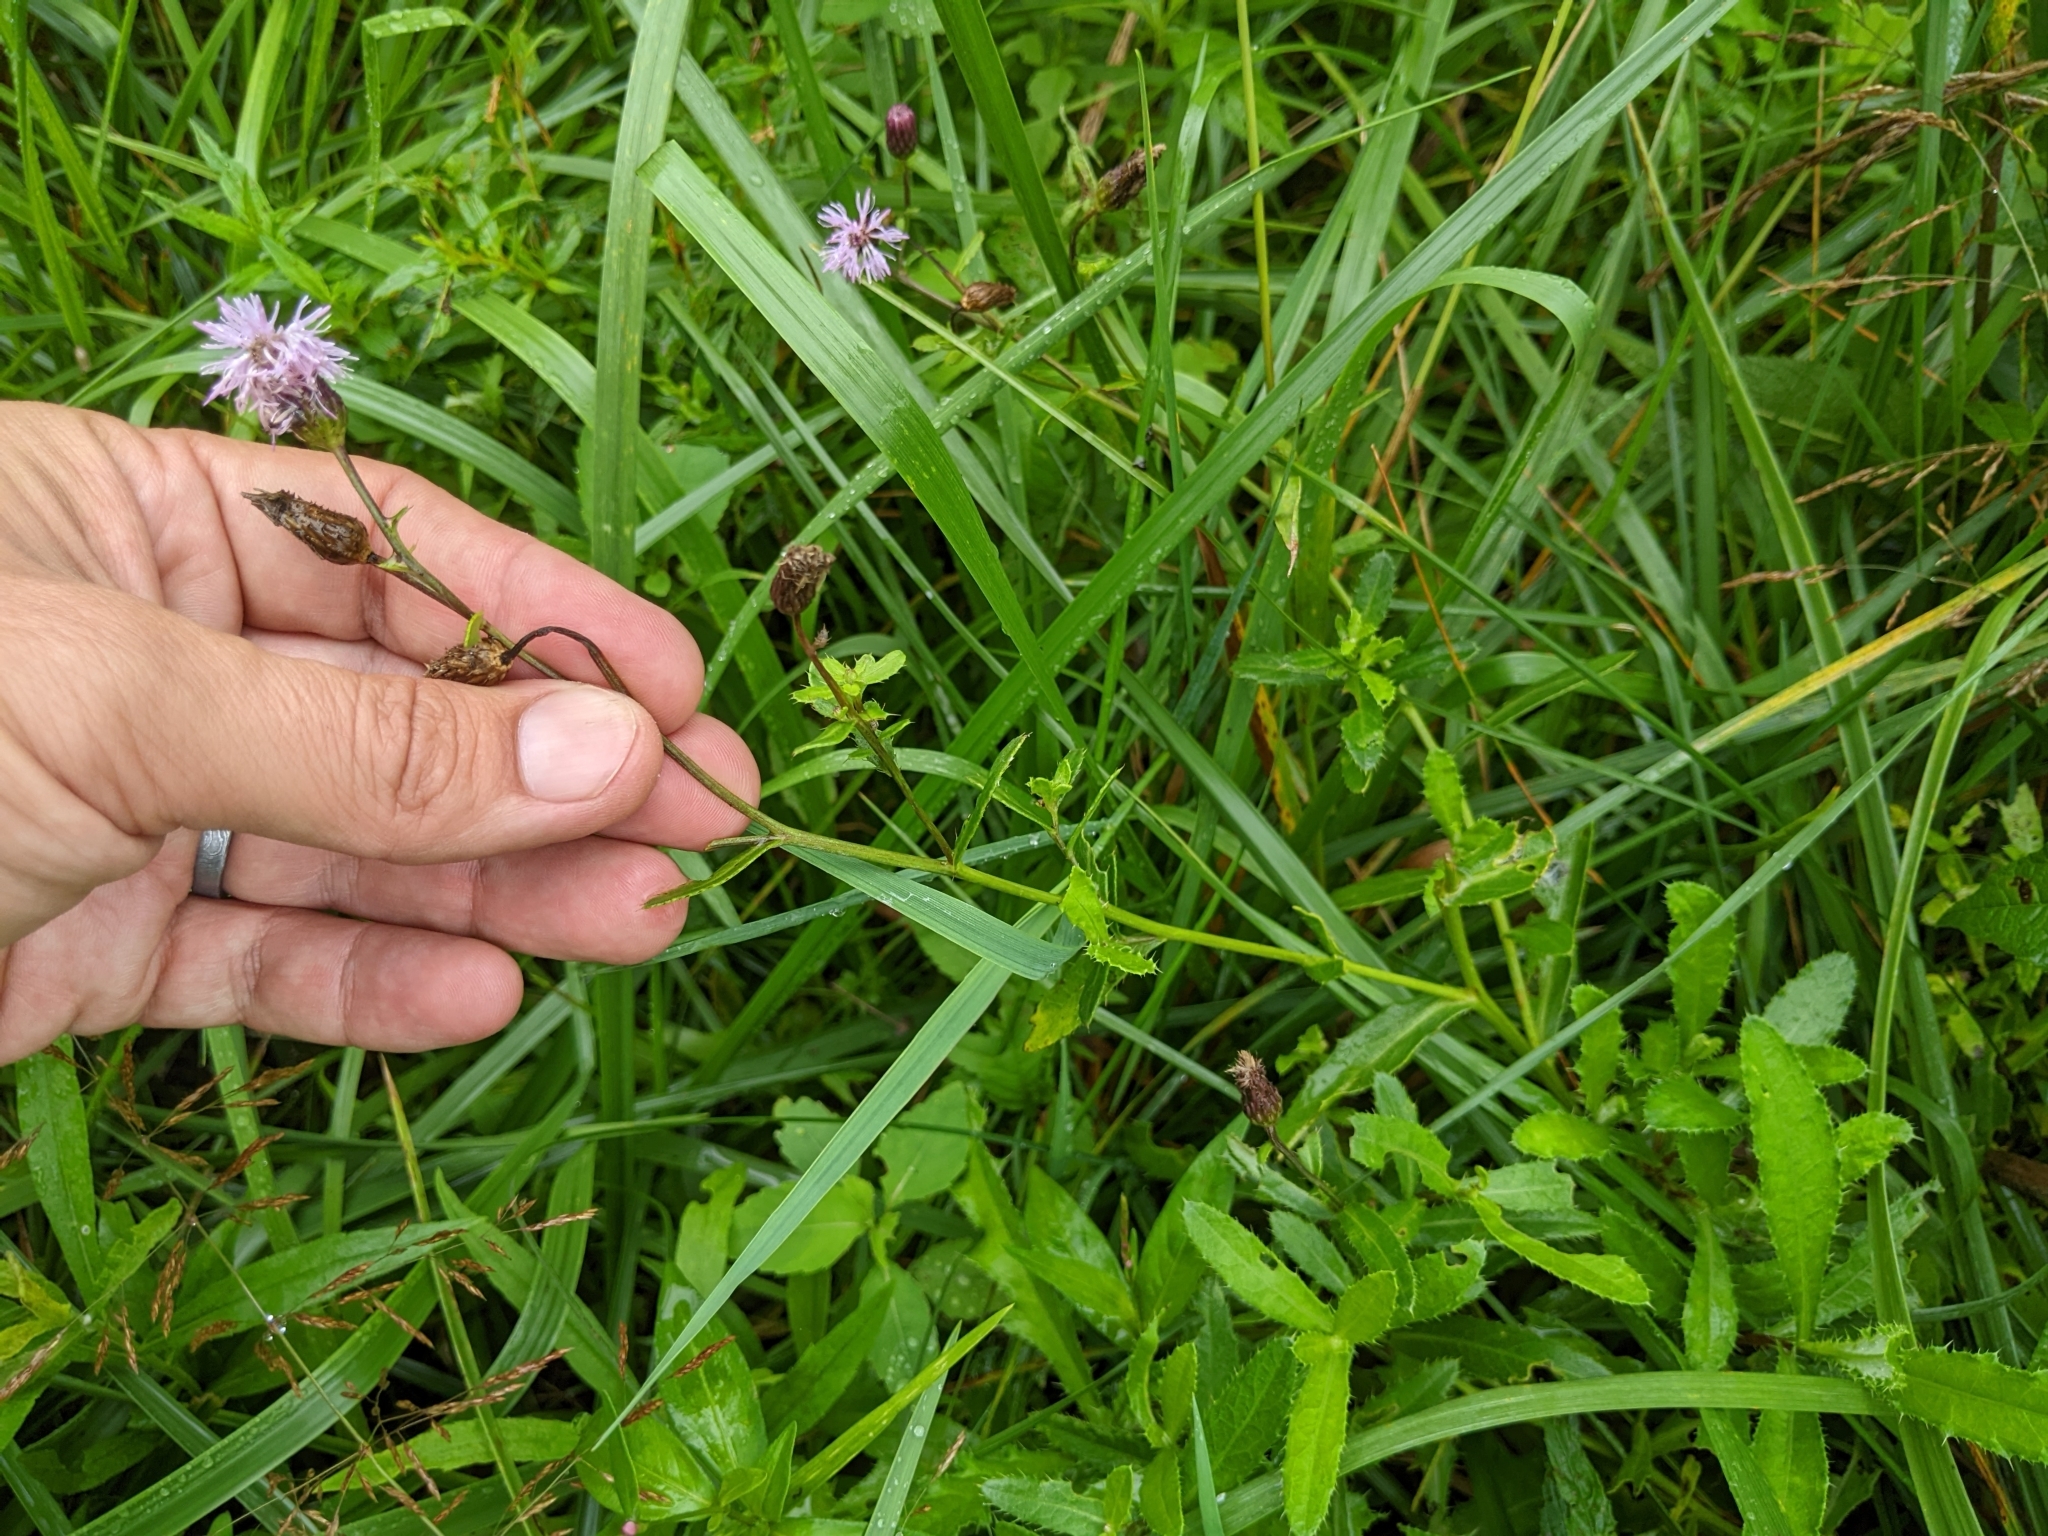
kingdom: Plantae
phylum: Tracheophyta
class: Magnoliopsida
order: Asterales
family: Asteraceae
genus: Cirsium
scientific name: Cirsium arvense
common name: Creeping thistle
